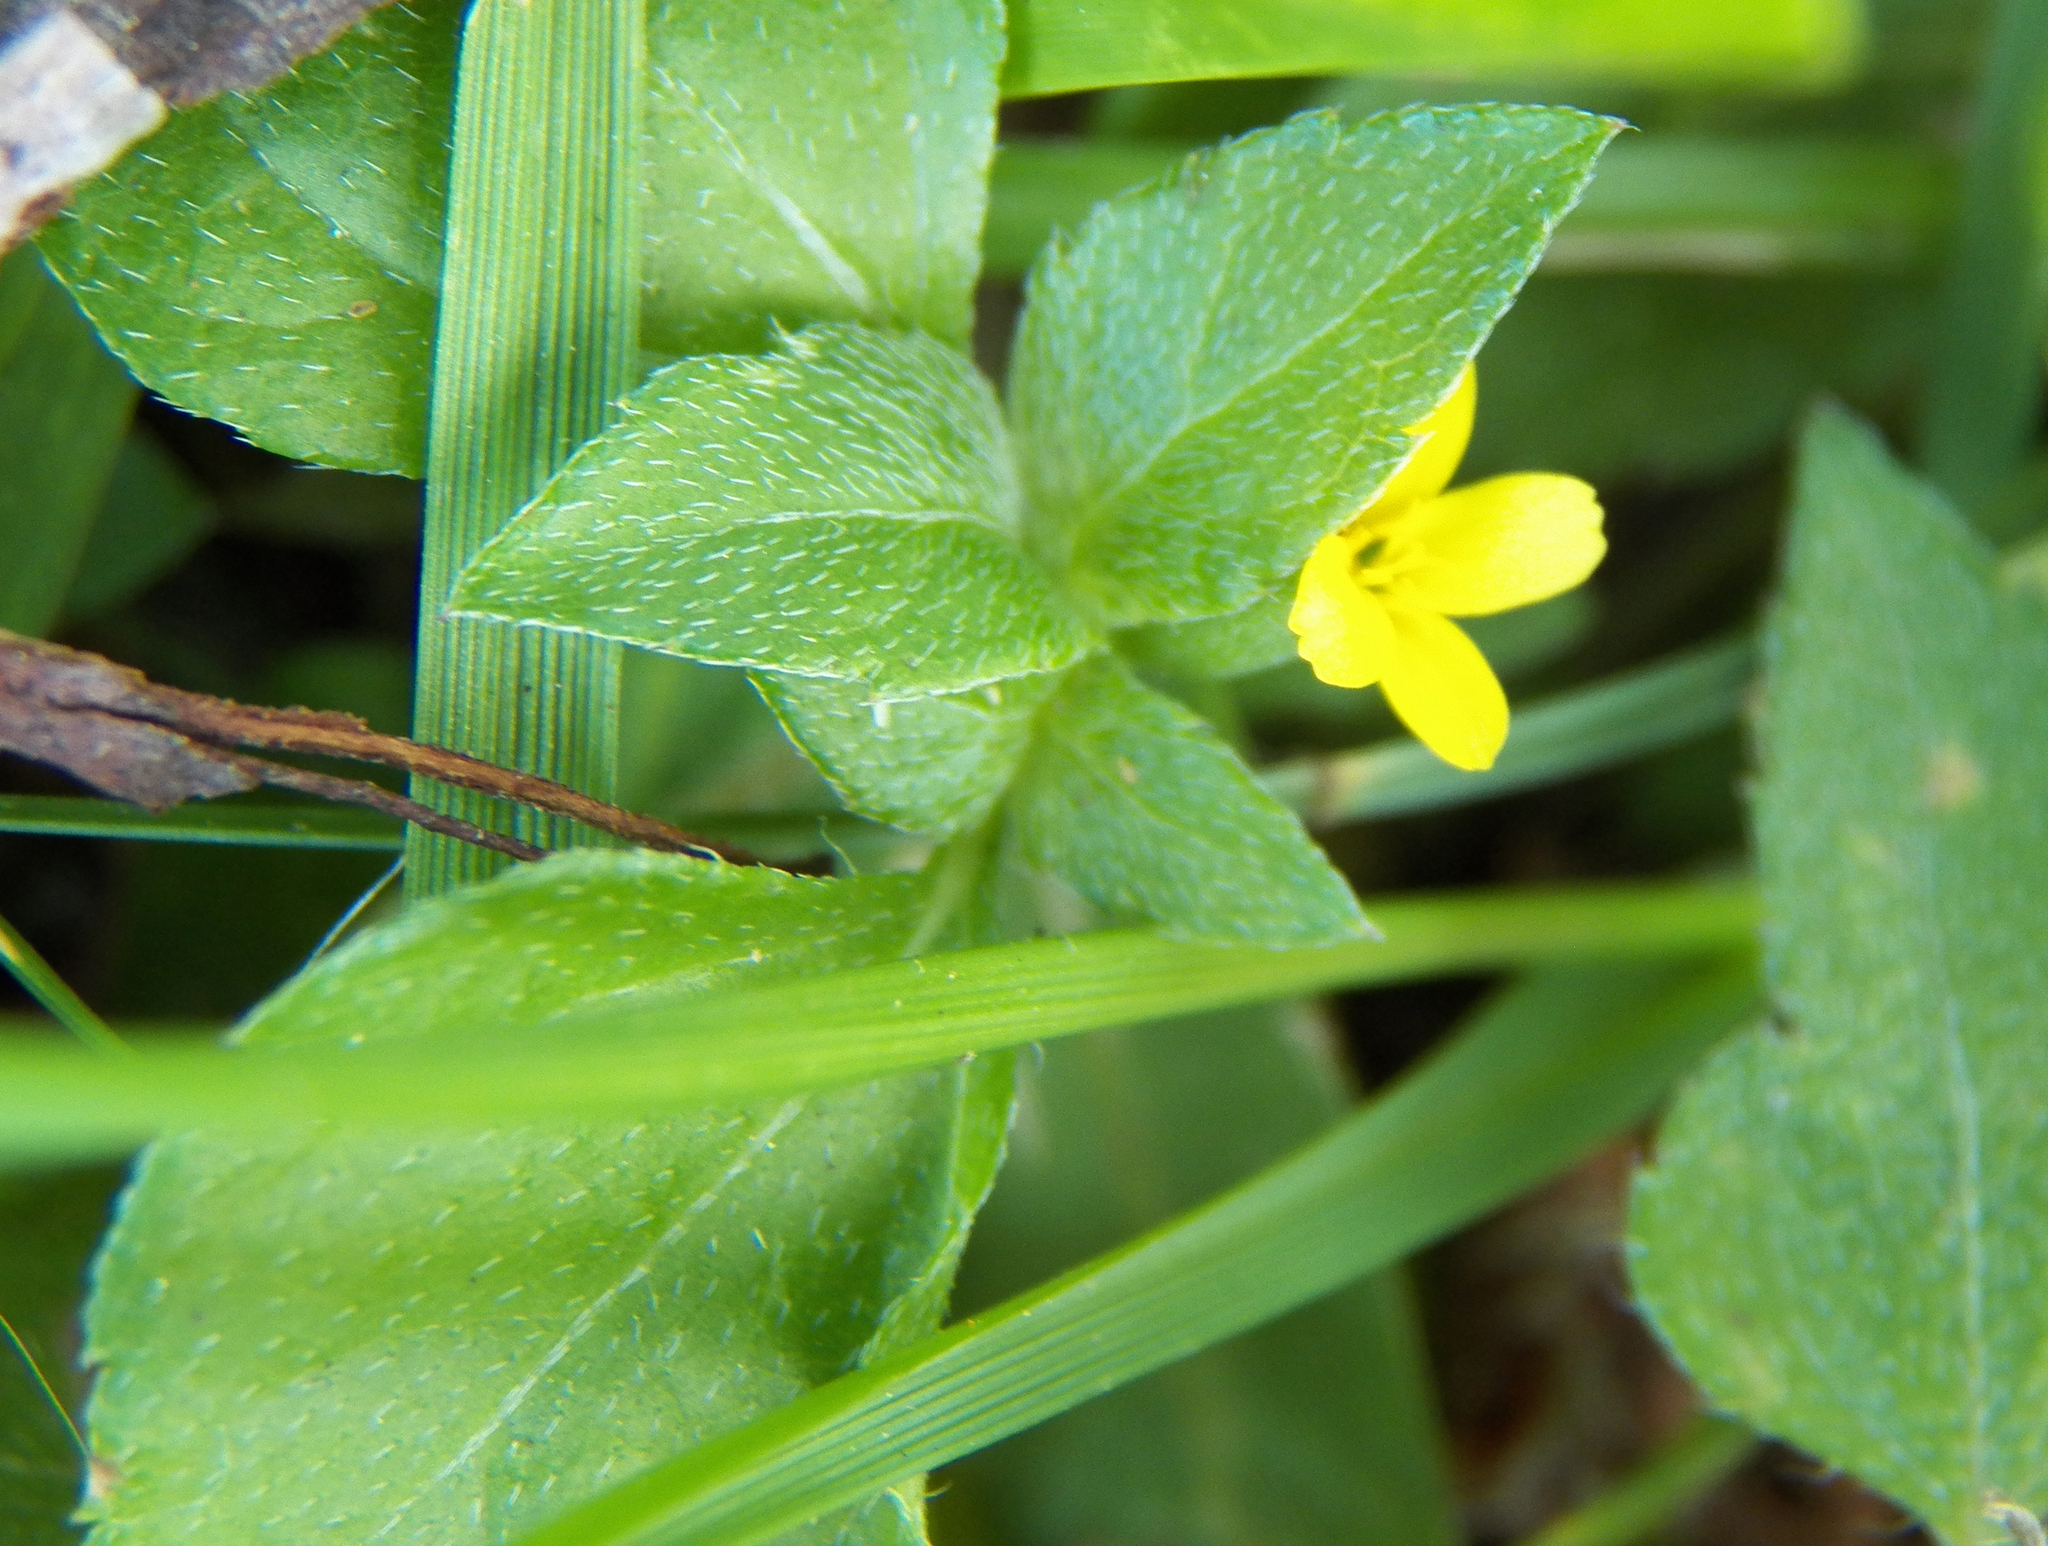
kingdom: Plantae
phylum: Tracheophyta
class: Magnoliopsida
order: Asterales
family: Asteraceae
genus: Calyptocarpus
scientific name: Calyptocarpus vialis
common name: Straggler daisy
